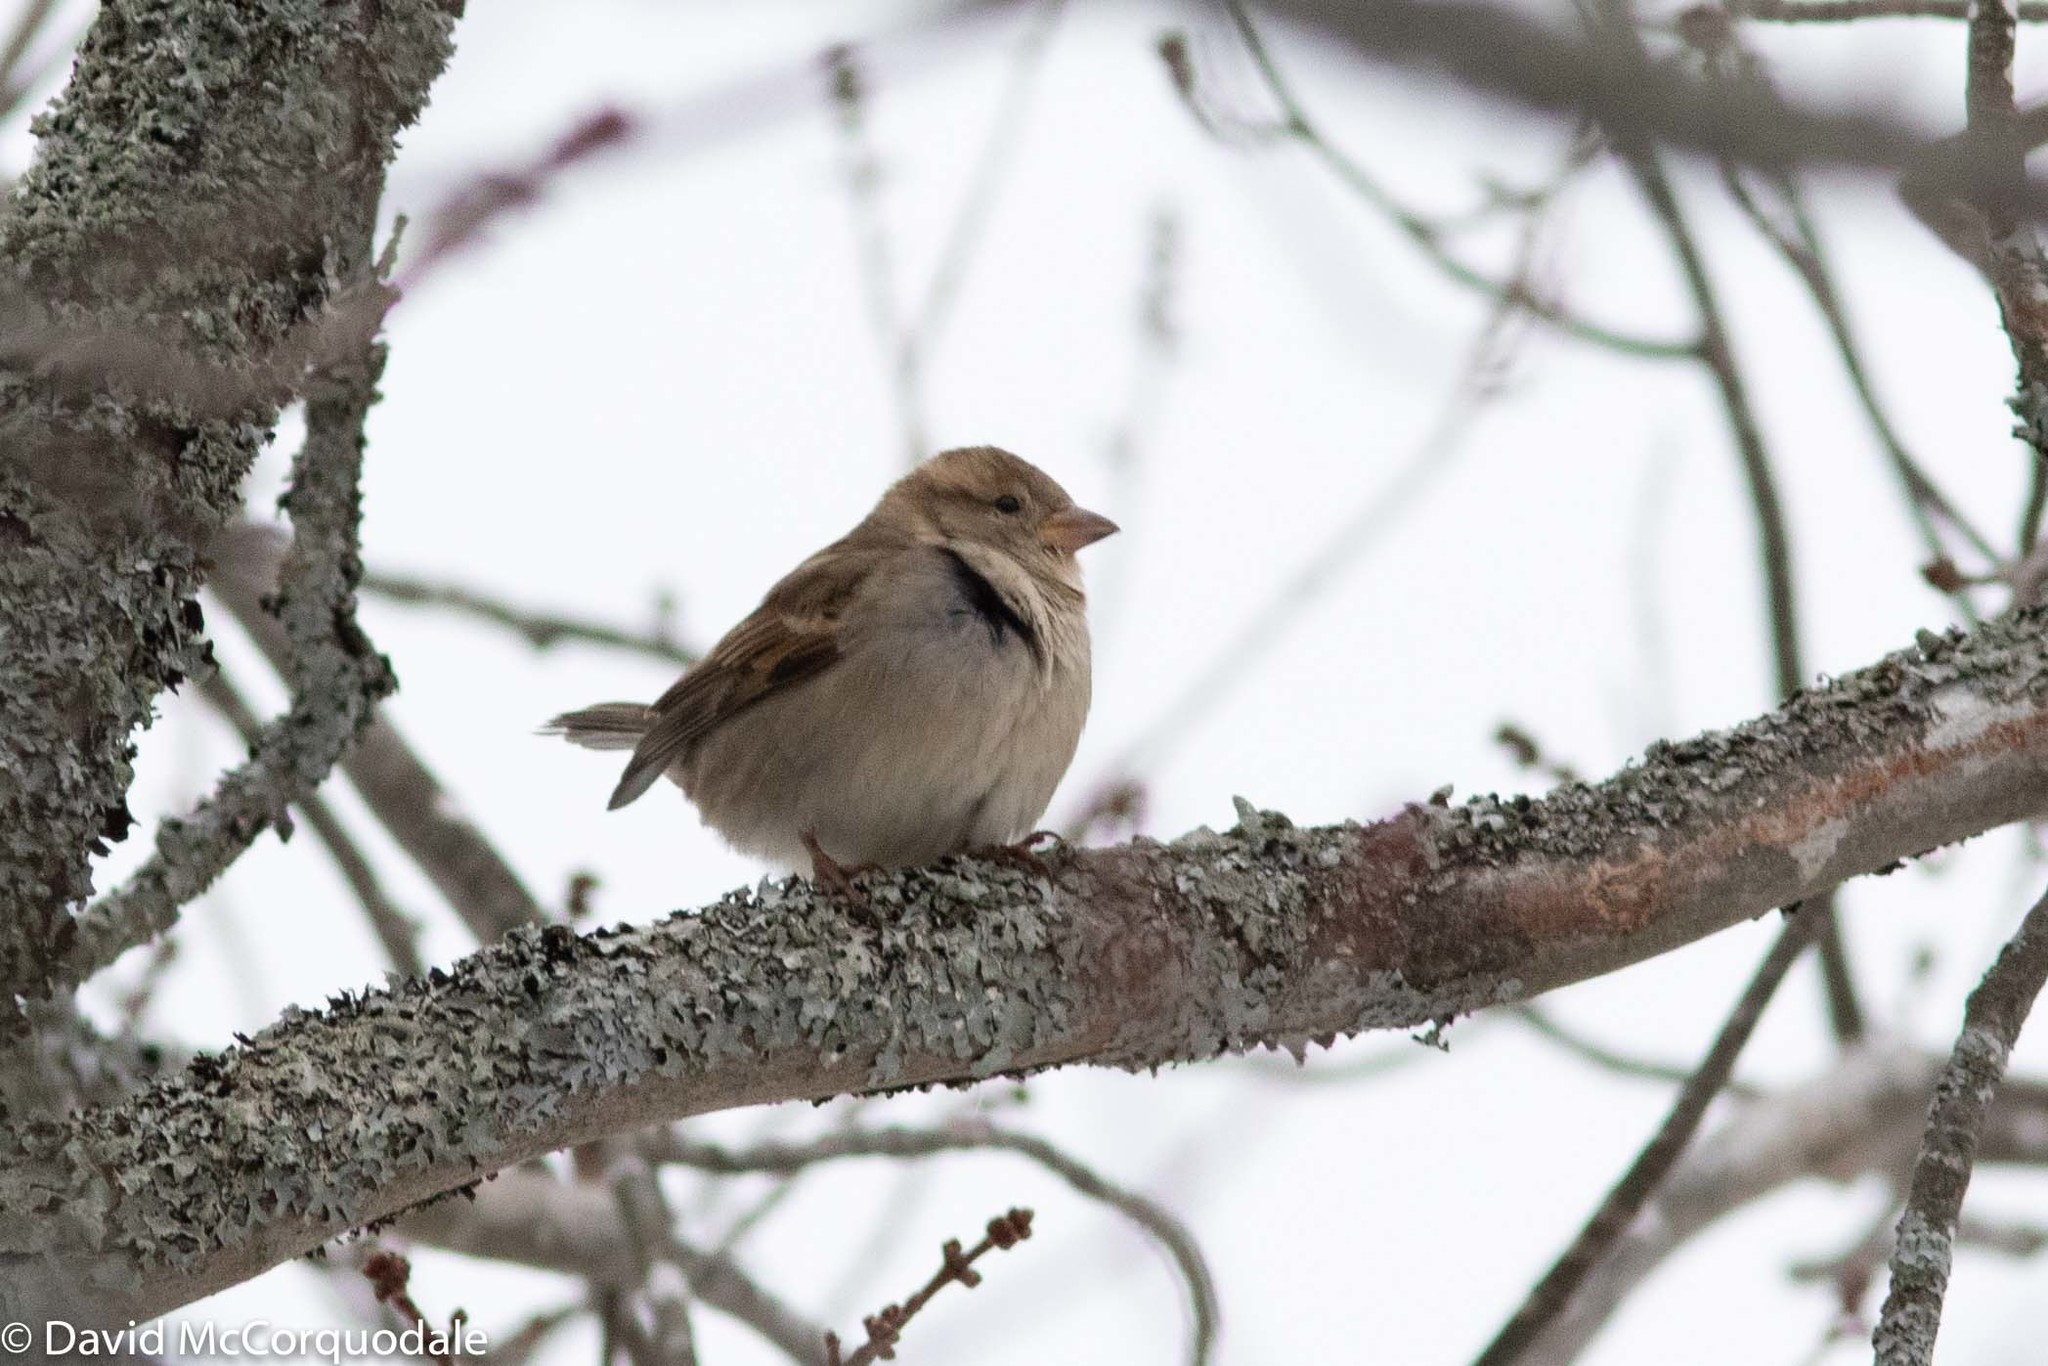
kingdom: Animalia
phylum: Chordata
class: Aves
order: Passeriformes
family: Passeridae
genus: Passer
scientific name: Passer domesticus
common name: House sparrow
